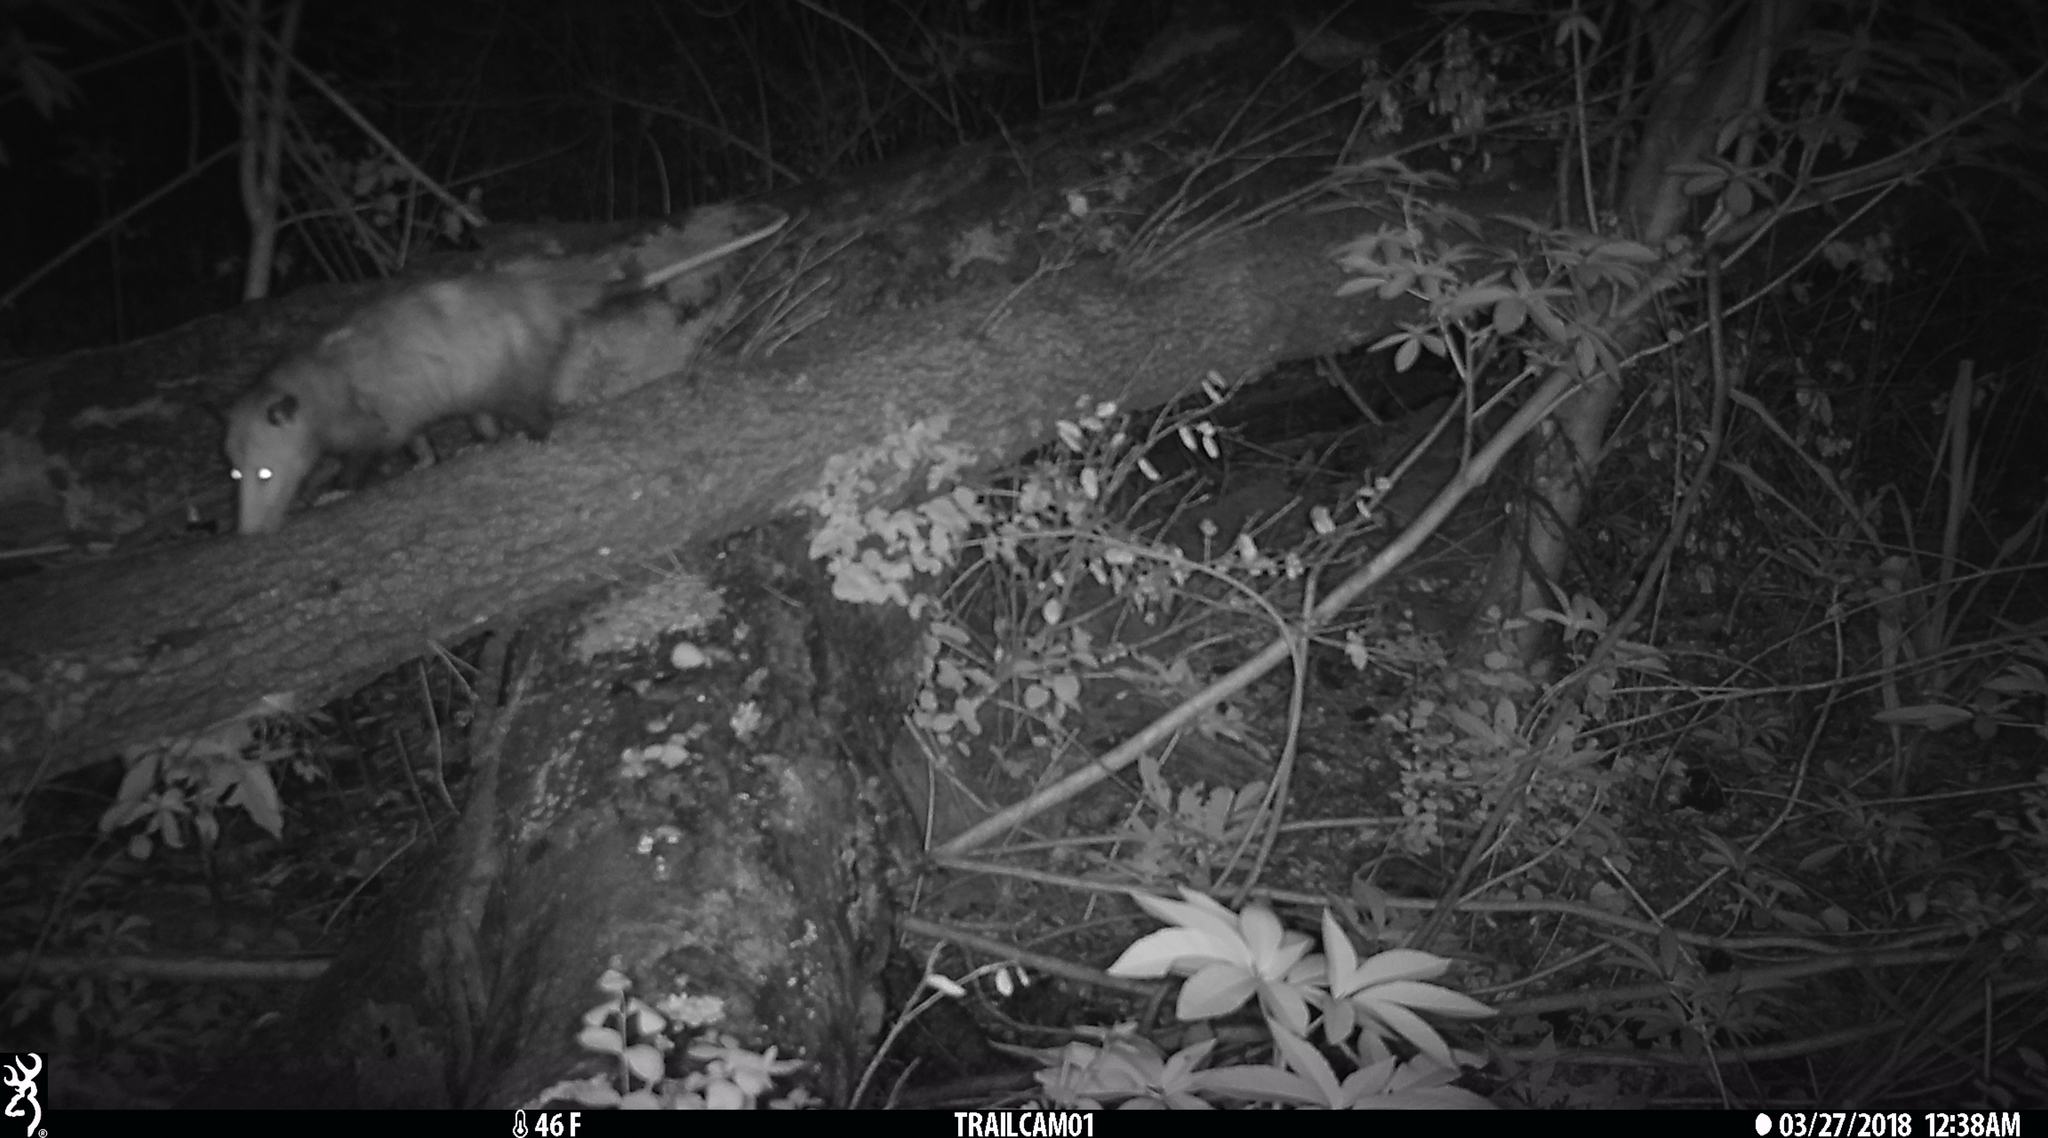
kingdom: Animalia
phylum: Chordata
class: Mammalia
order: Didelphimorphia
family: Didelphidae
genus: Didelphis
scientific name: Didelphis virginiana
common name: Virginia opossum
